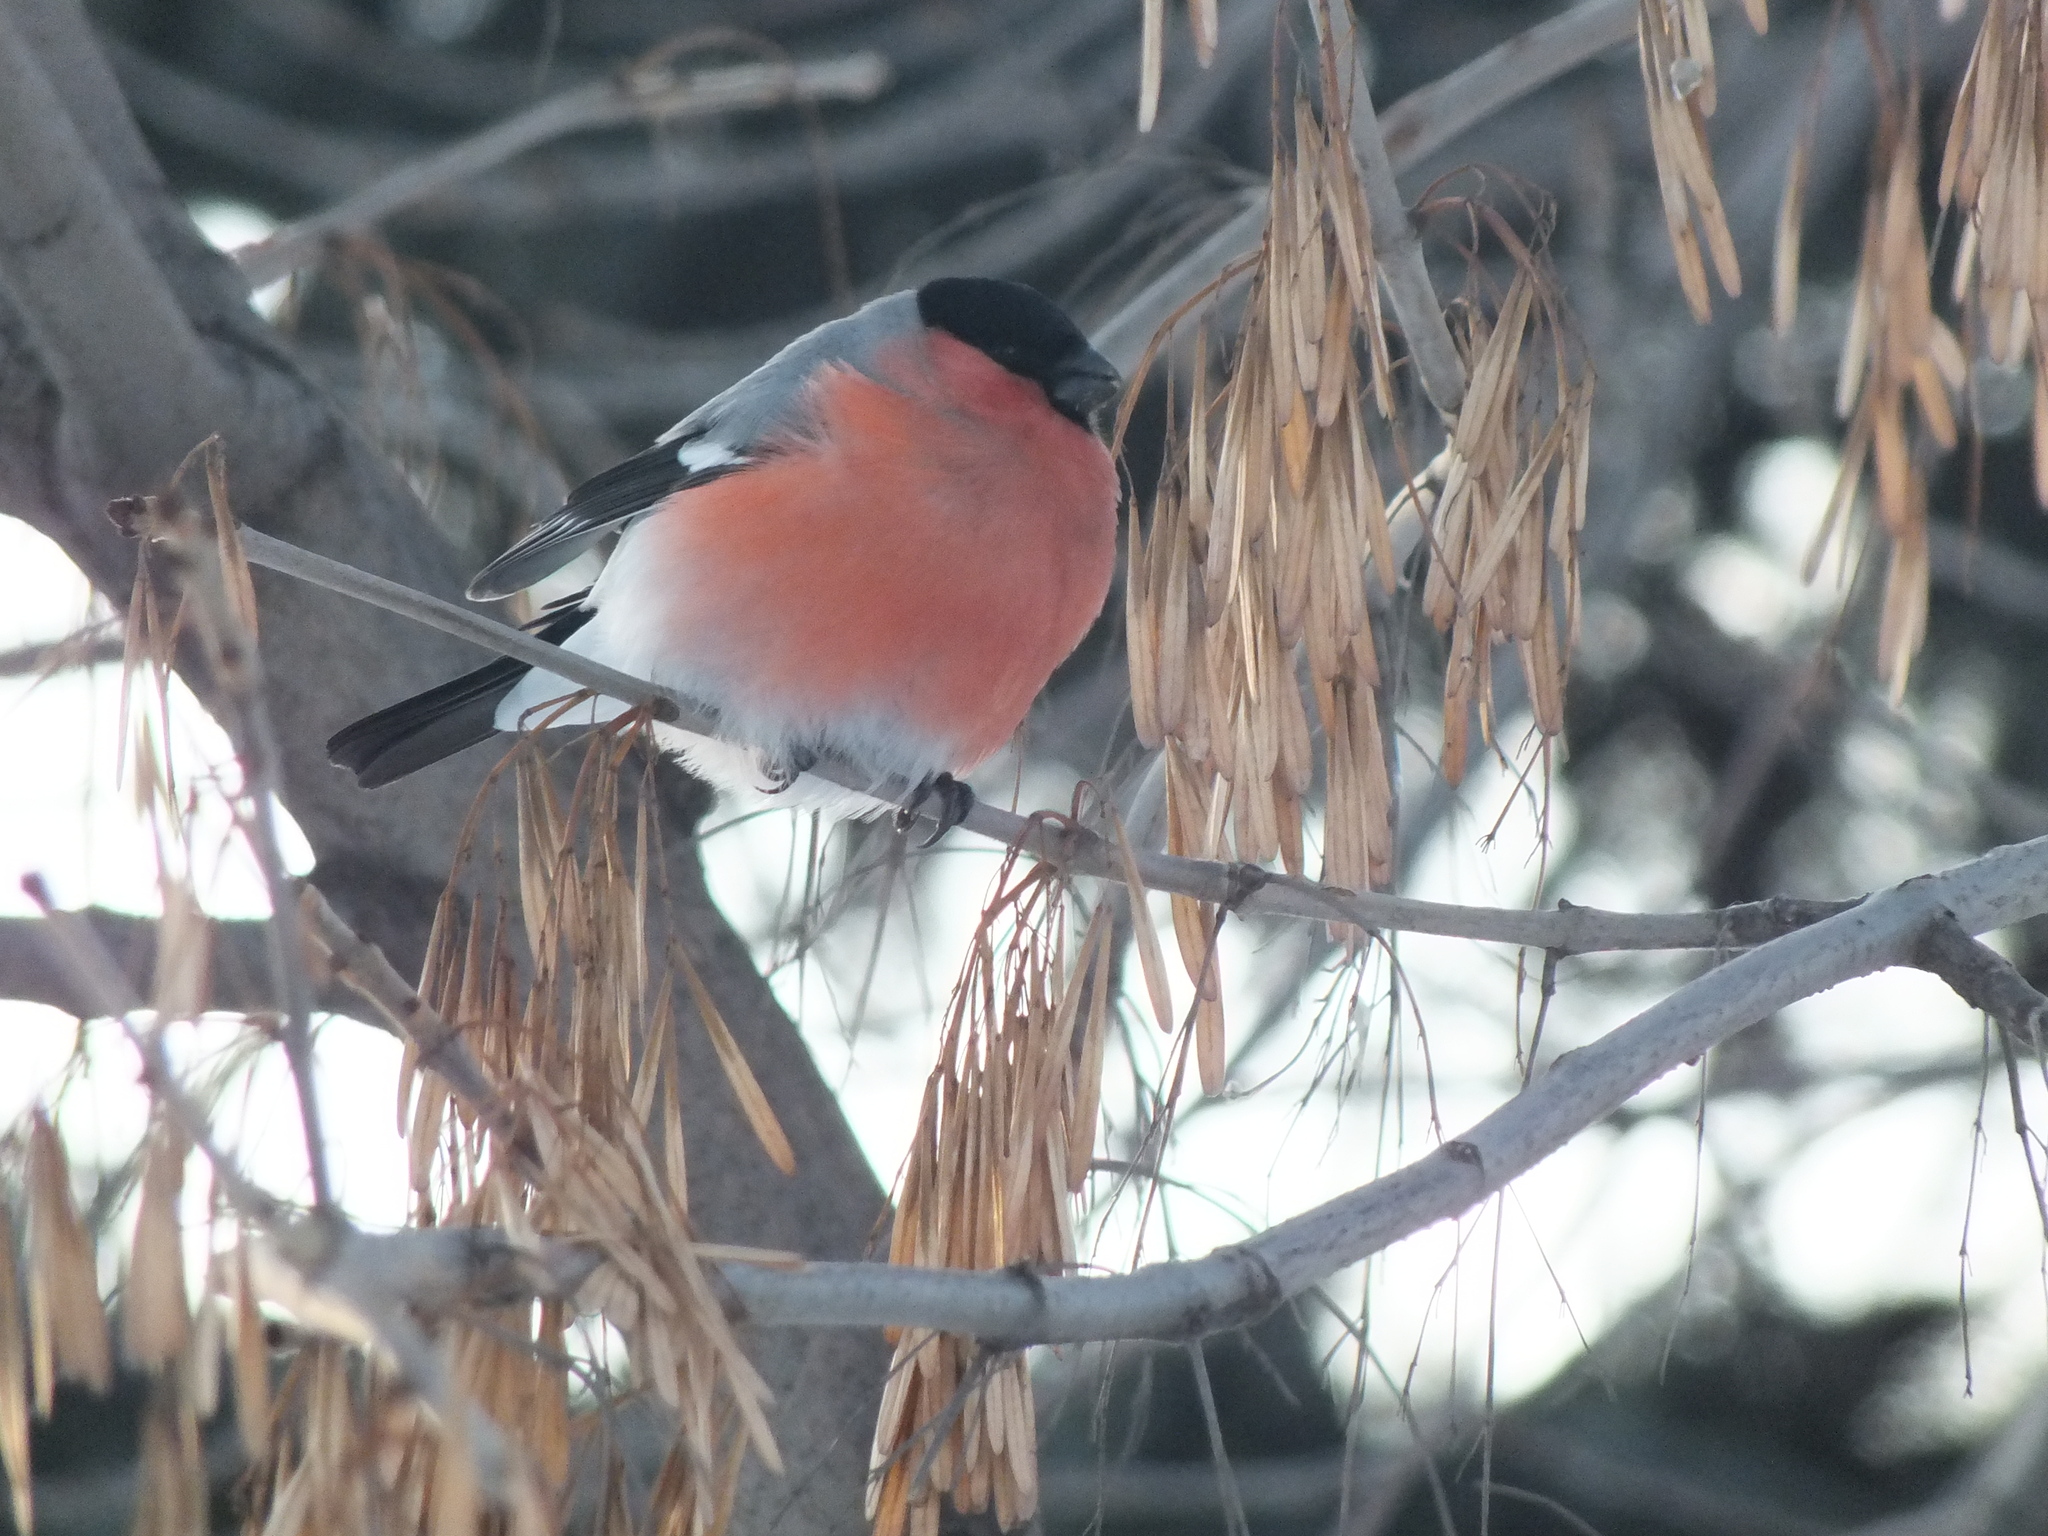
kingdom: Animalia
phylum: Chordata
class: Aves
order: Passeriformes
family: Fringillidae
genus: Pyrrhula
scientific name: Pyrrhula pyrrhula
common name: Eurasian bullfinch
